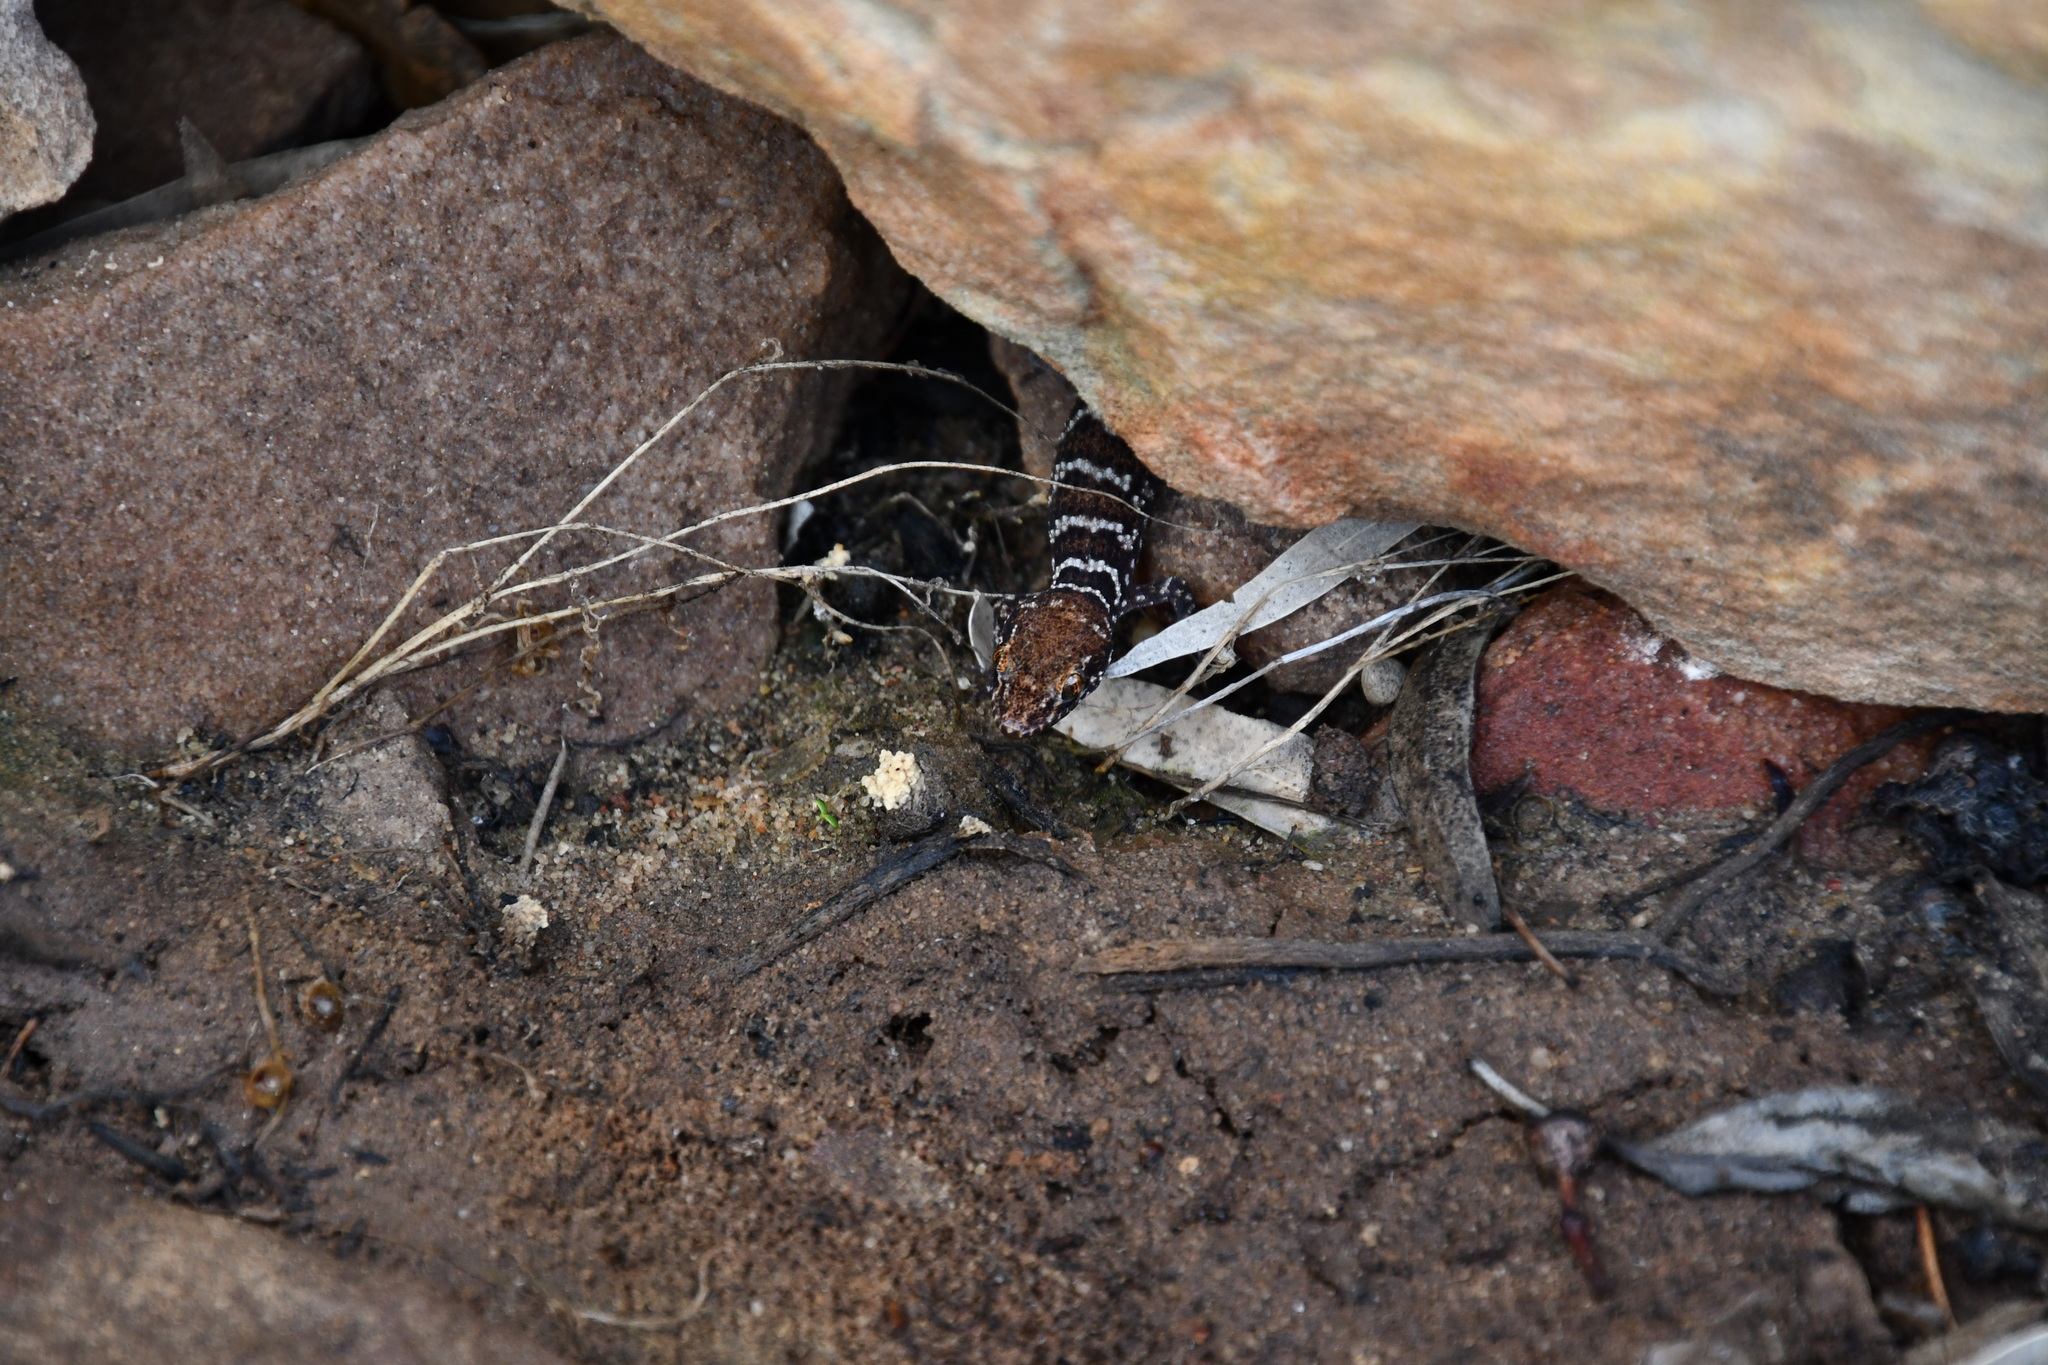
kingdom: Animalia
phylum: Chordata
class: Squamata
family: Gekkonidae
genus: Heteronotia
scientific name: Heteronotia binoei
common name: Bynoe's gecko
